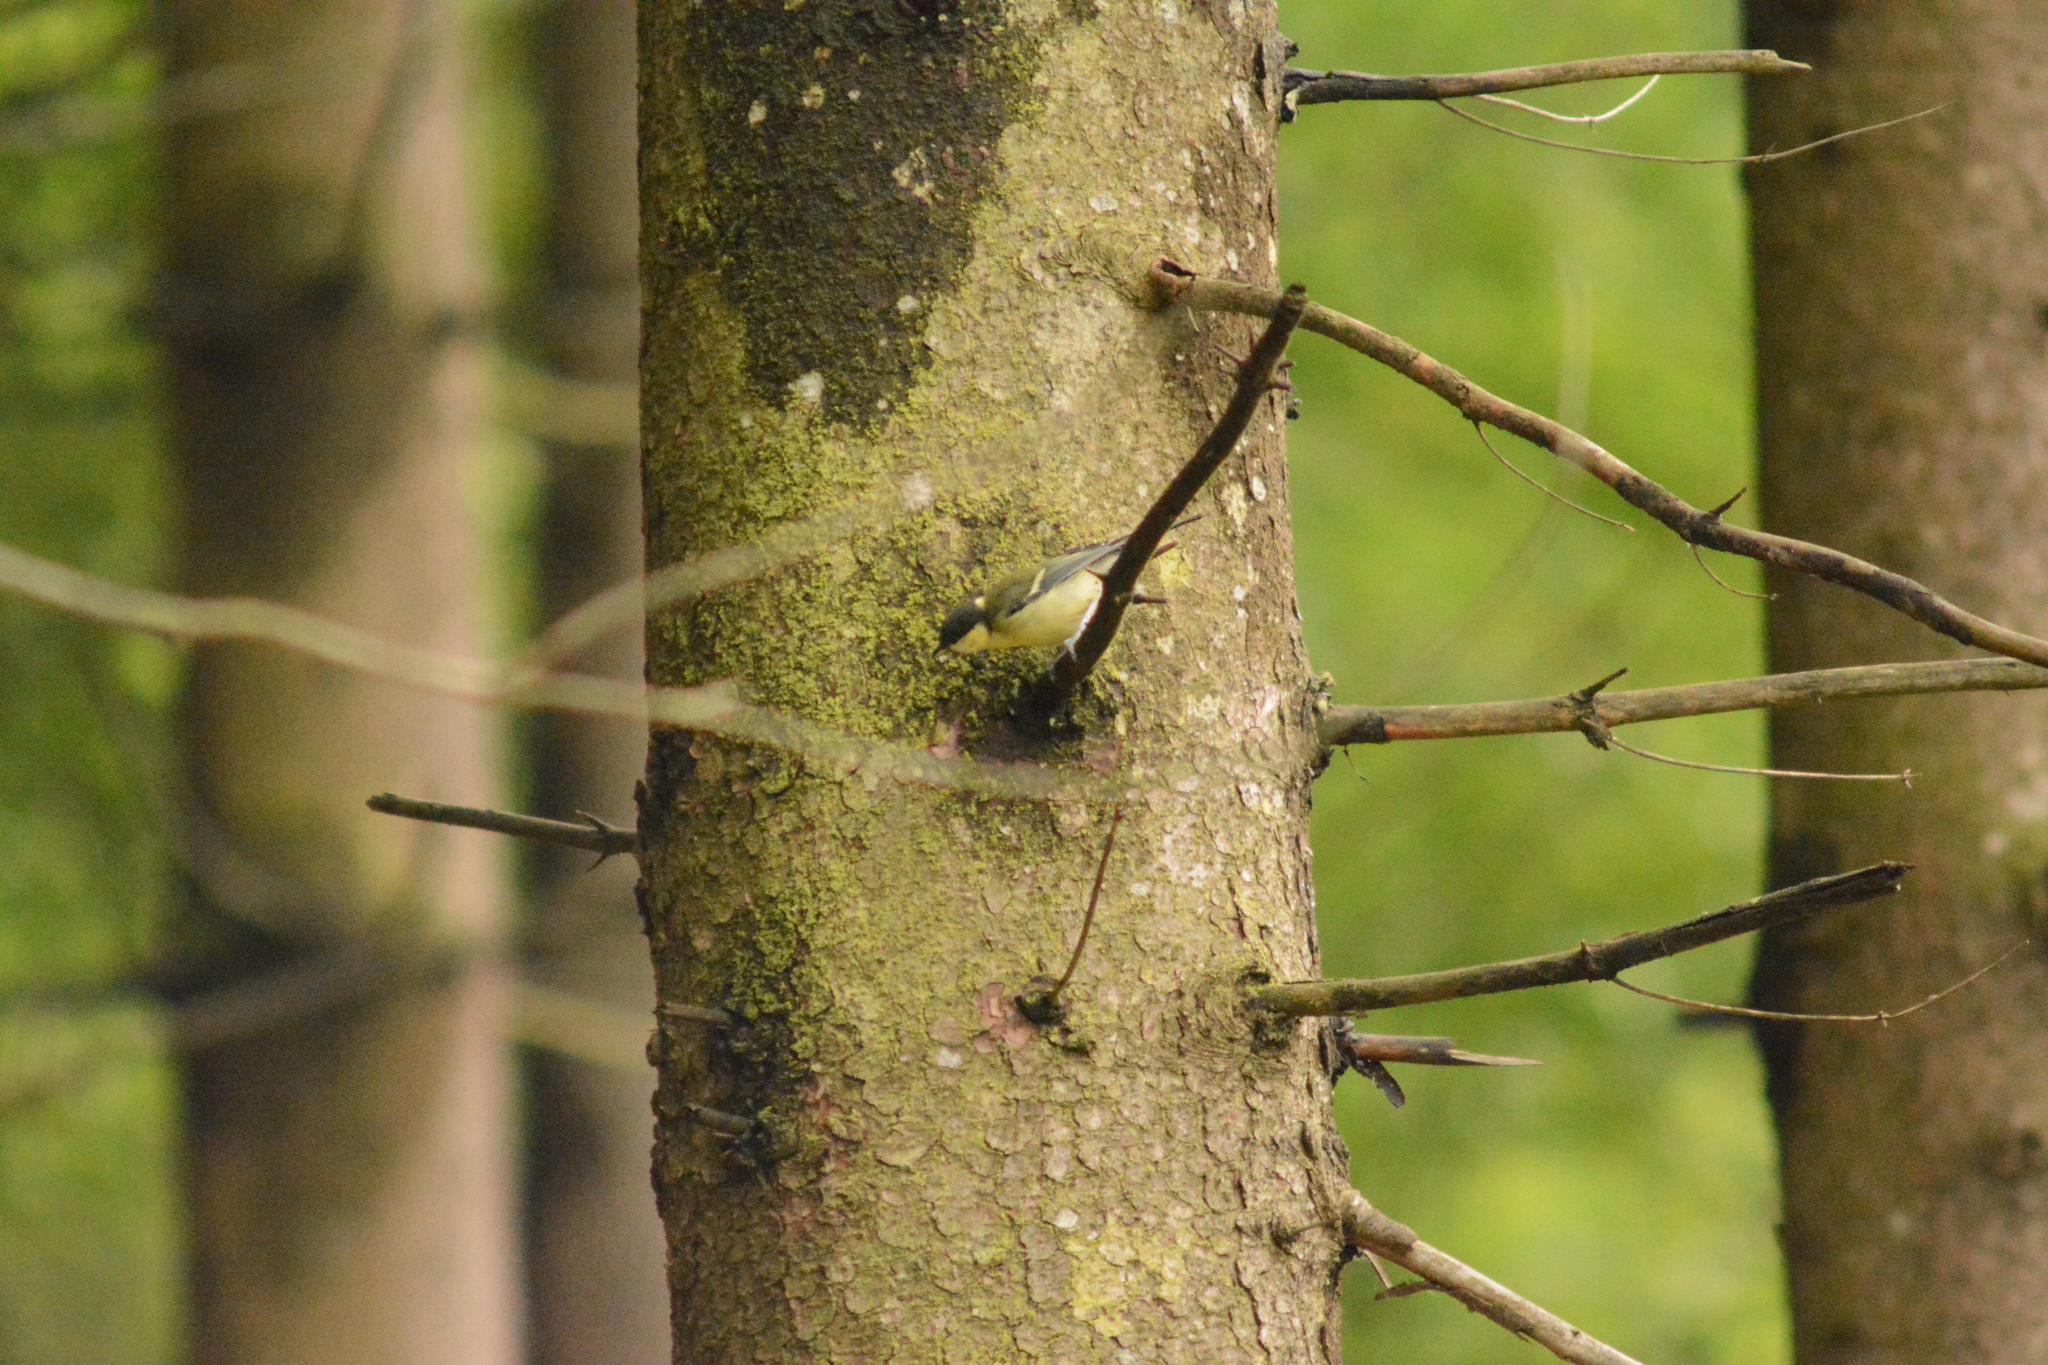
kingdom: Animalia
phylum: Chordata
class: Aves
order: Passeriformes
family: Paridae
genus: Parus
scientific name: Parus major
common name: Great tit
